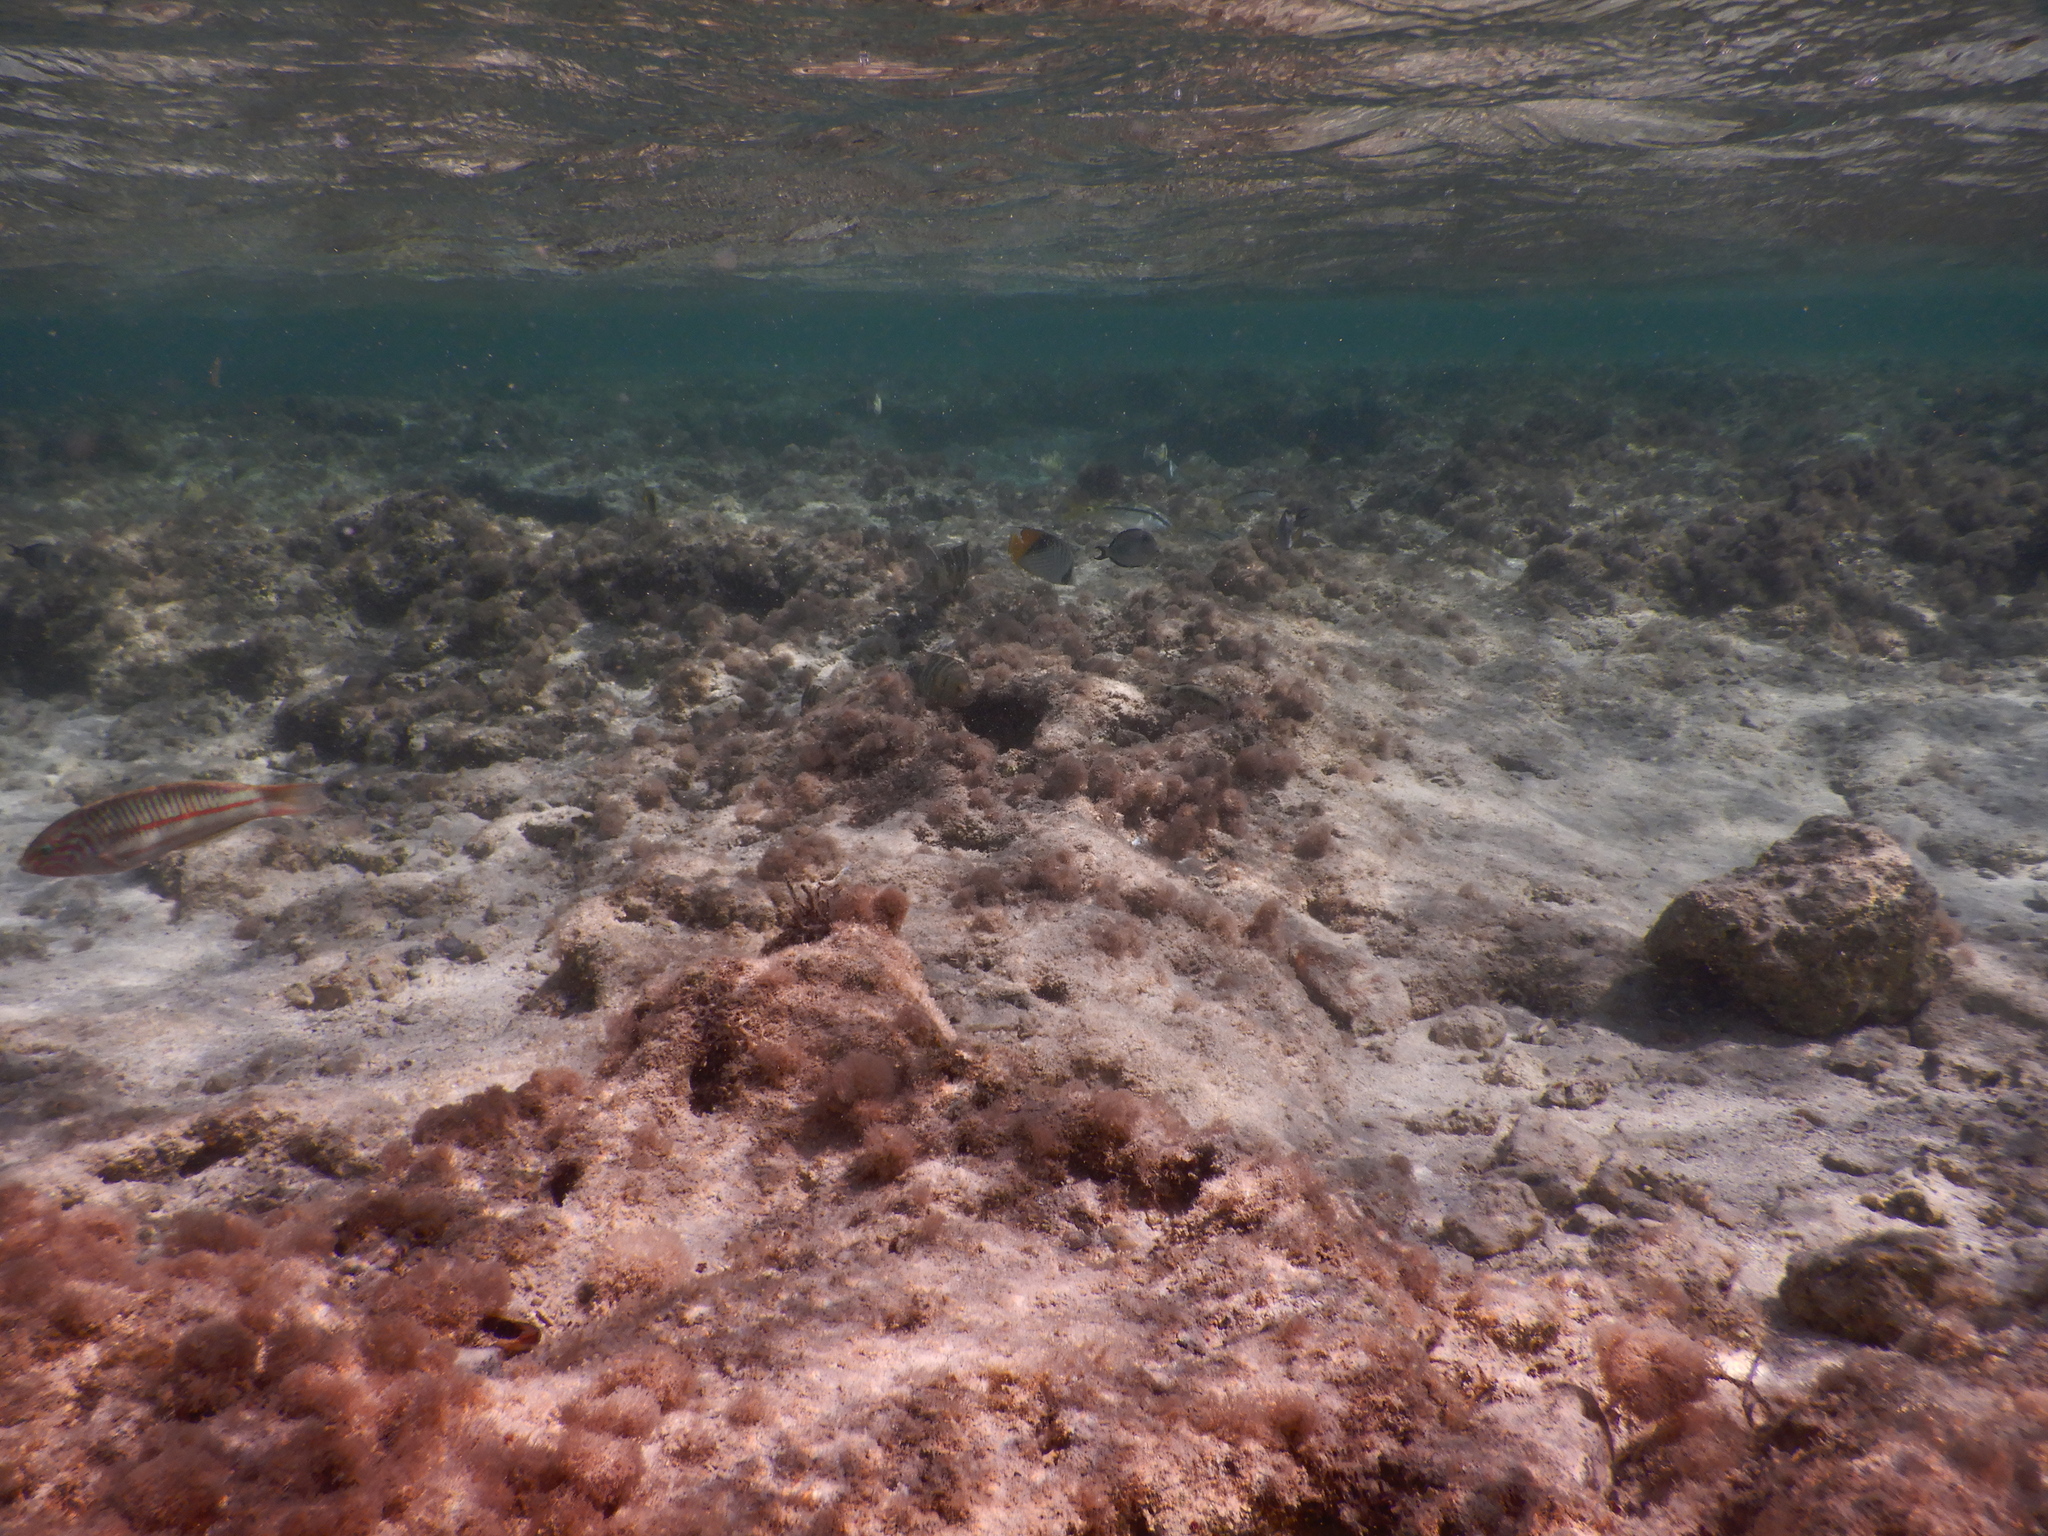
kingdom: Animalia
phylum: Chordata
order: Perciformes
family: Labridae
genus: Thalassoma
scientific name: Thalassoma rueppellii
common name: Klunzinger's wrasse
